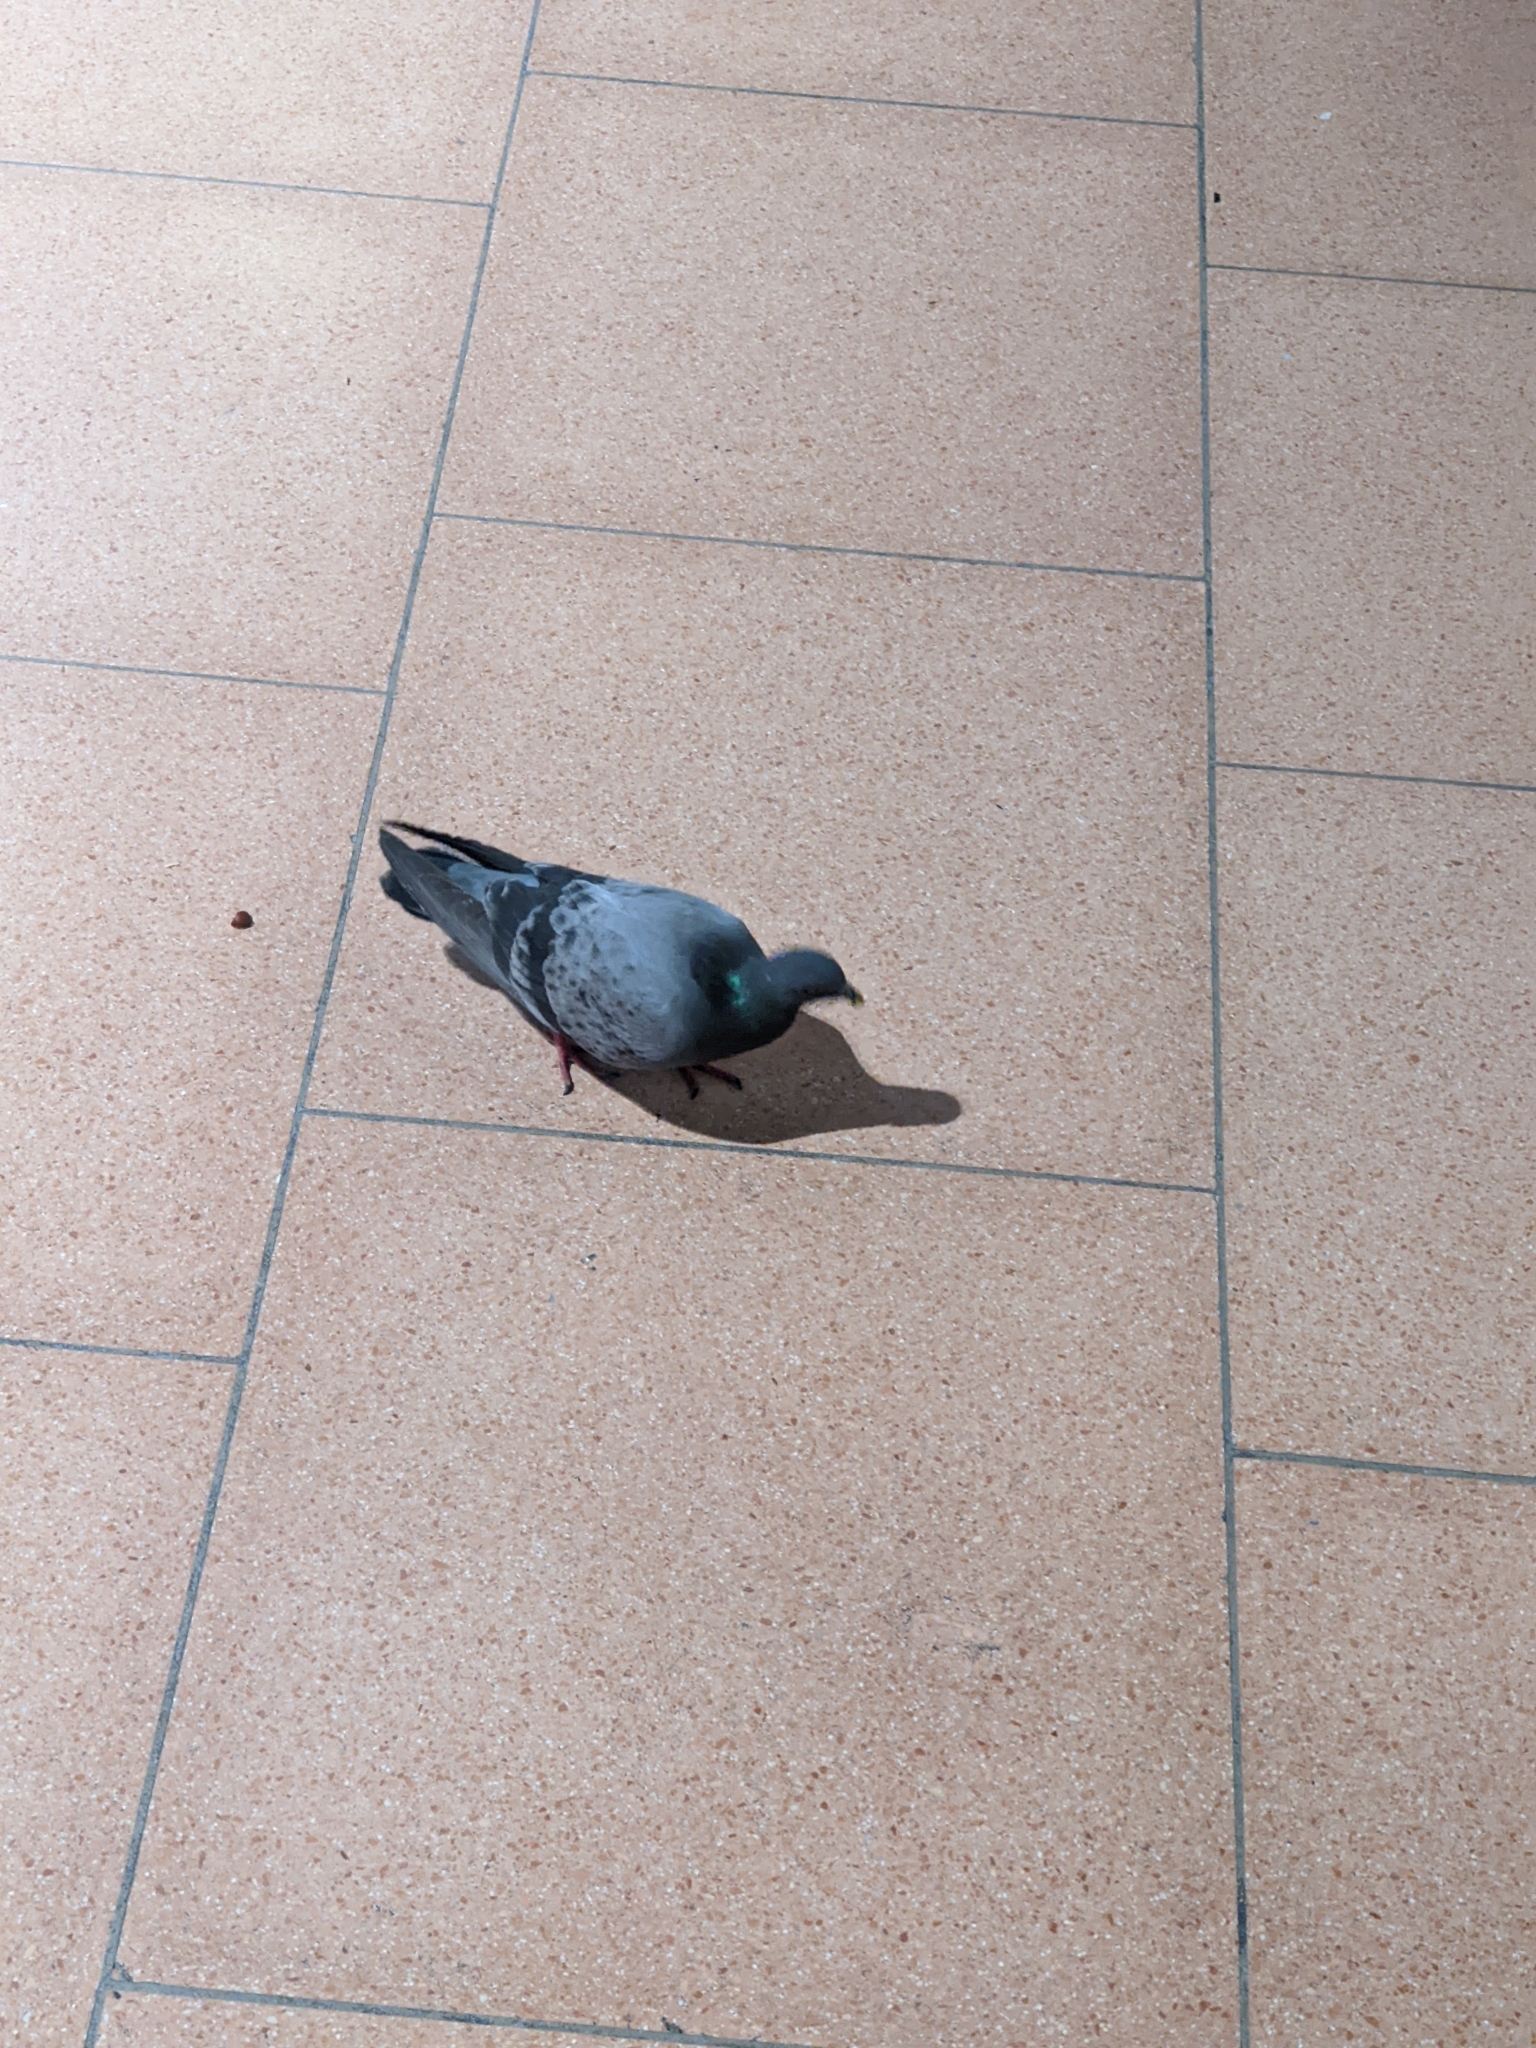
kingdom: Animalia
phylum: Chordata
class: Aves
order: Columbiformes
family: Columbidae
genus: Columba
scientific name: Columba livia
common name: Rock pigeon
